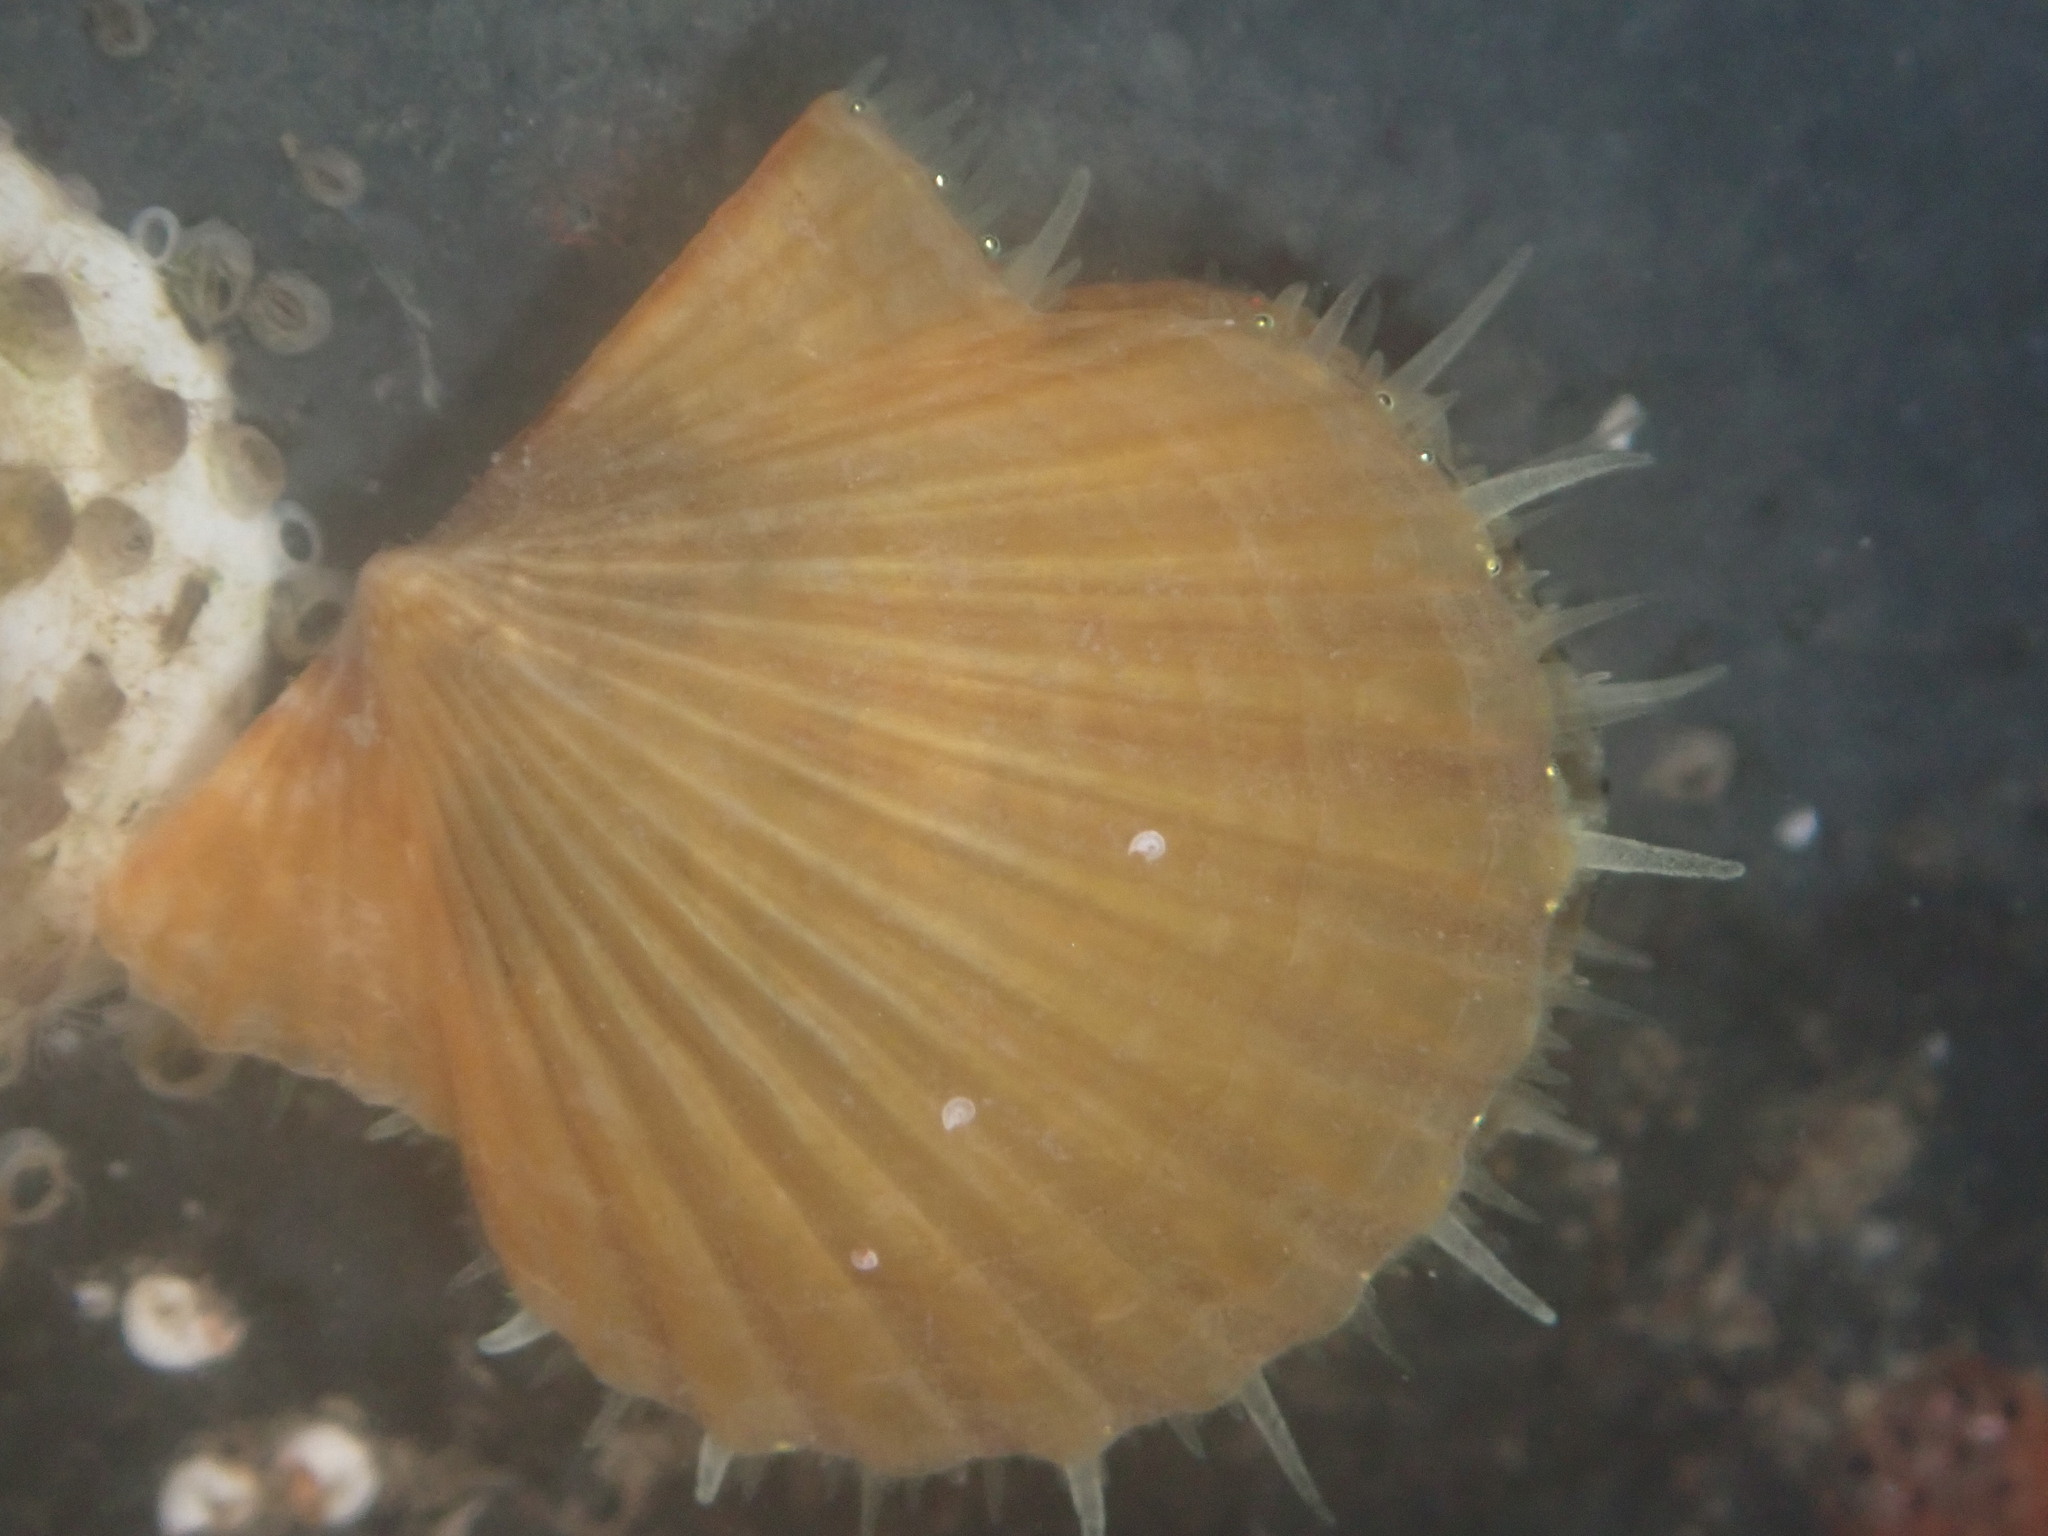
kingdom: Animalia
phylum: Mollusca
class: Bivalvia
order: Pectinida
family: Pectinidae
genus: Leptopecten
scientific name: Leptopecten latiauratus
